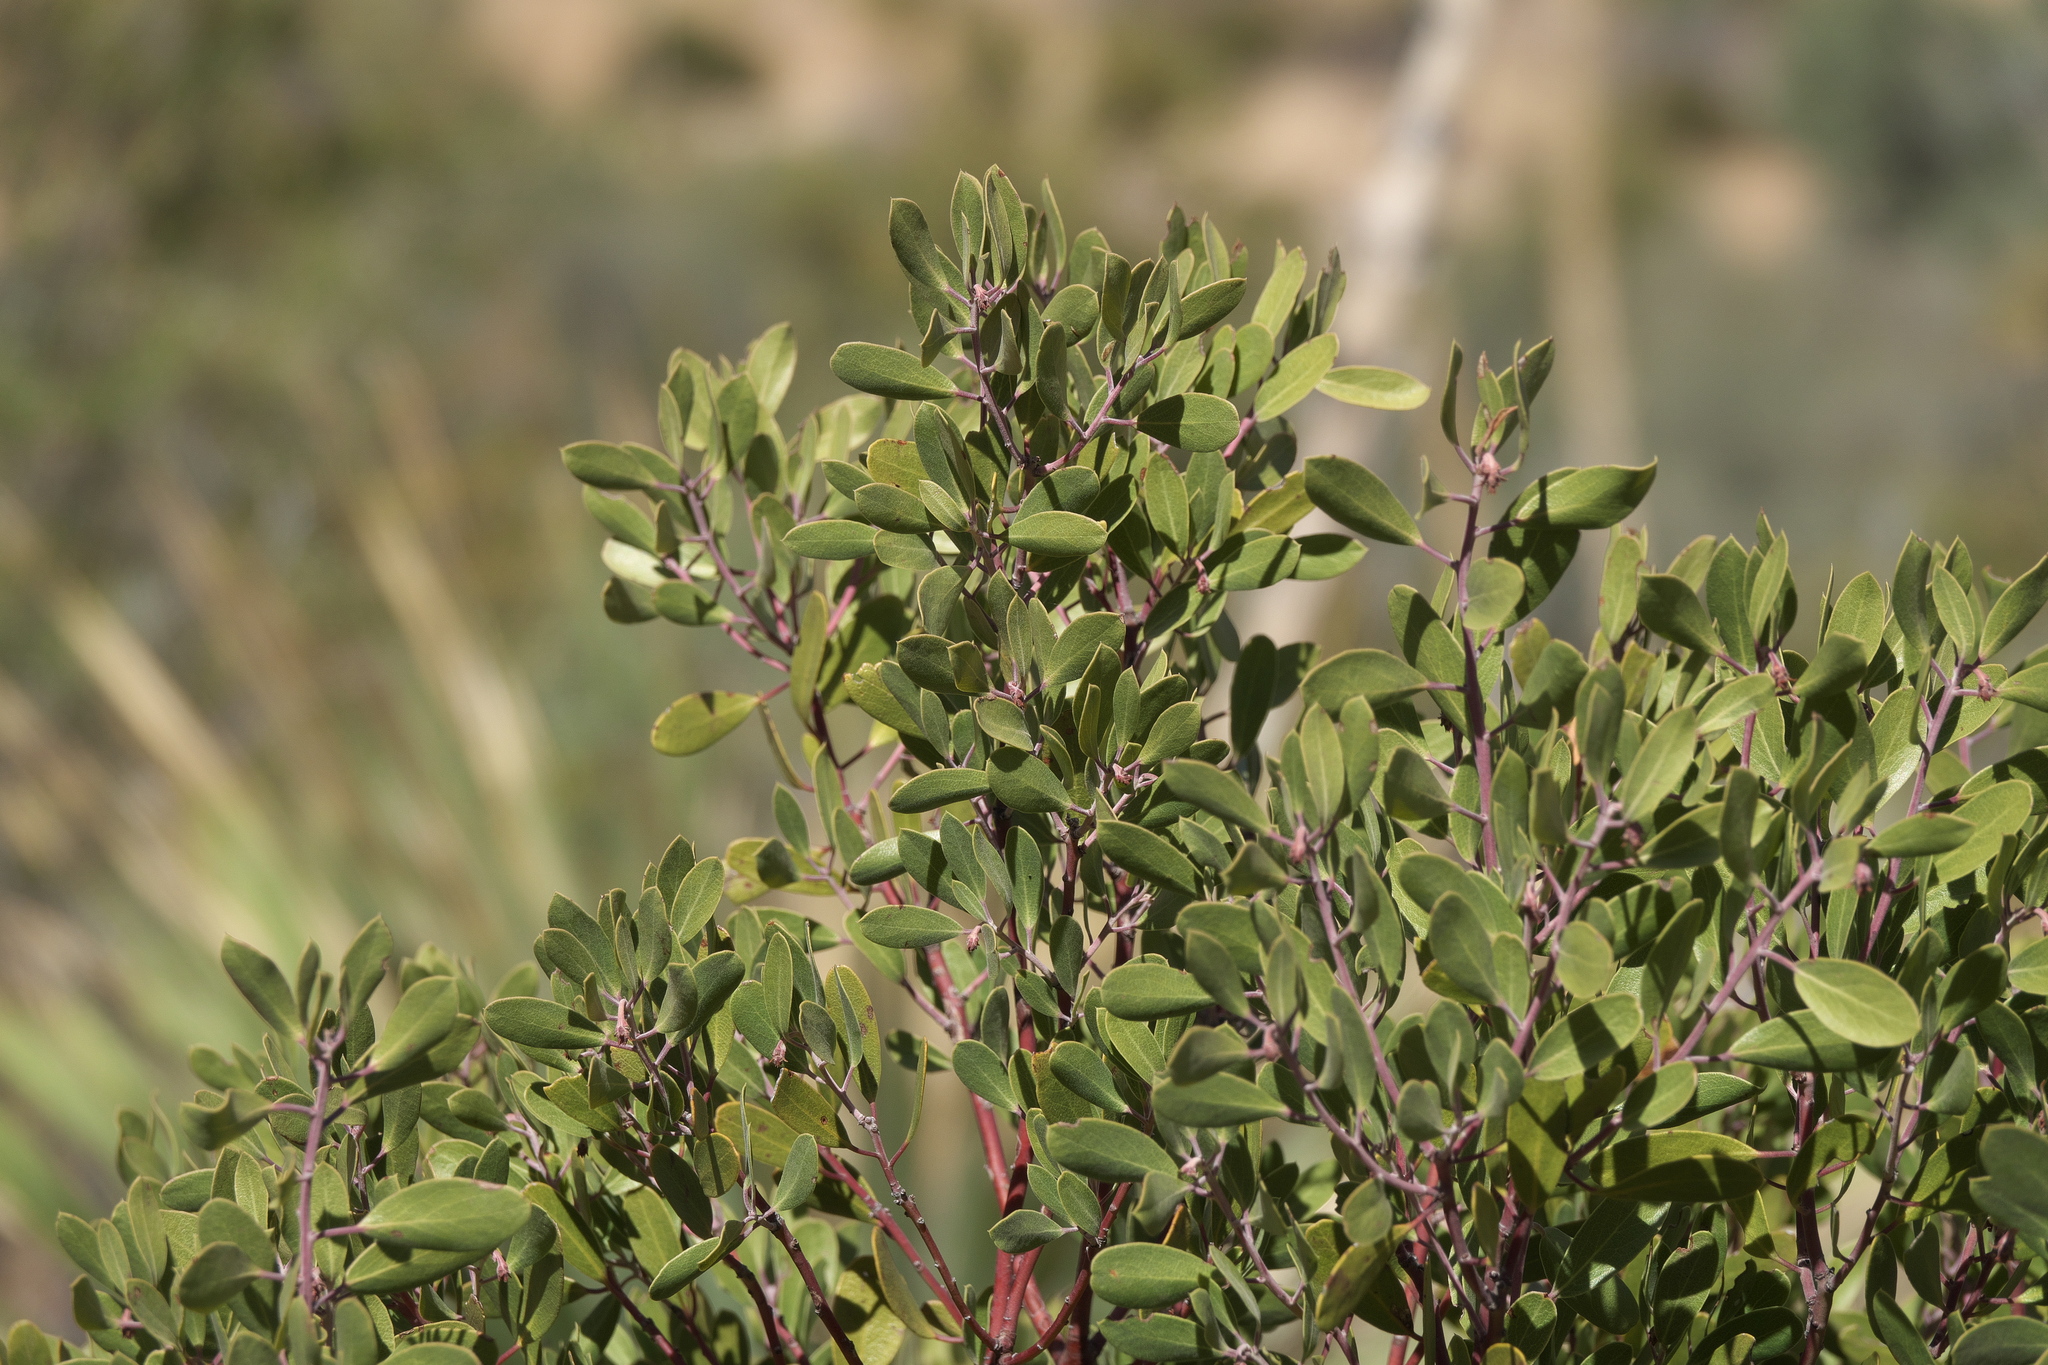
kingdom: Plantae
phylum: Tracheophyta
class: Magnoliopsida
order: Ericales
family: Ericaceae
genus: Arctostaphylos
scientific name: Arctostaphylos pungens
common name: Mexican manzanita
